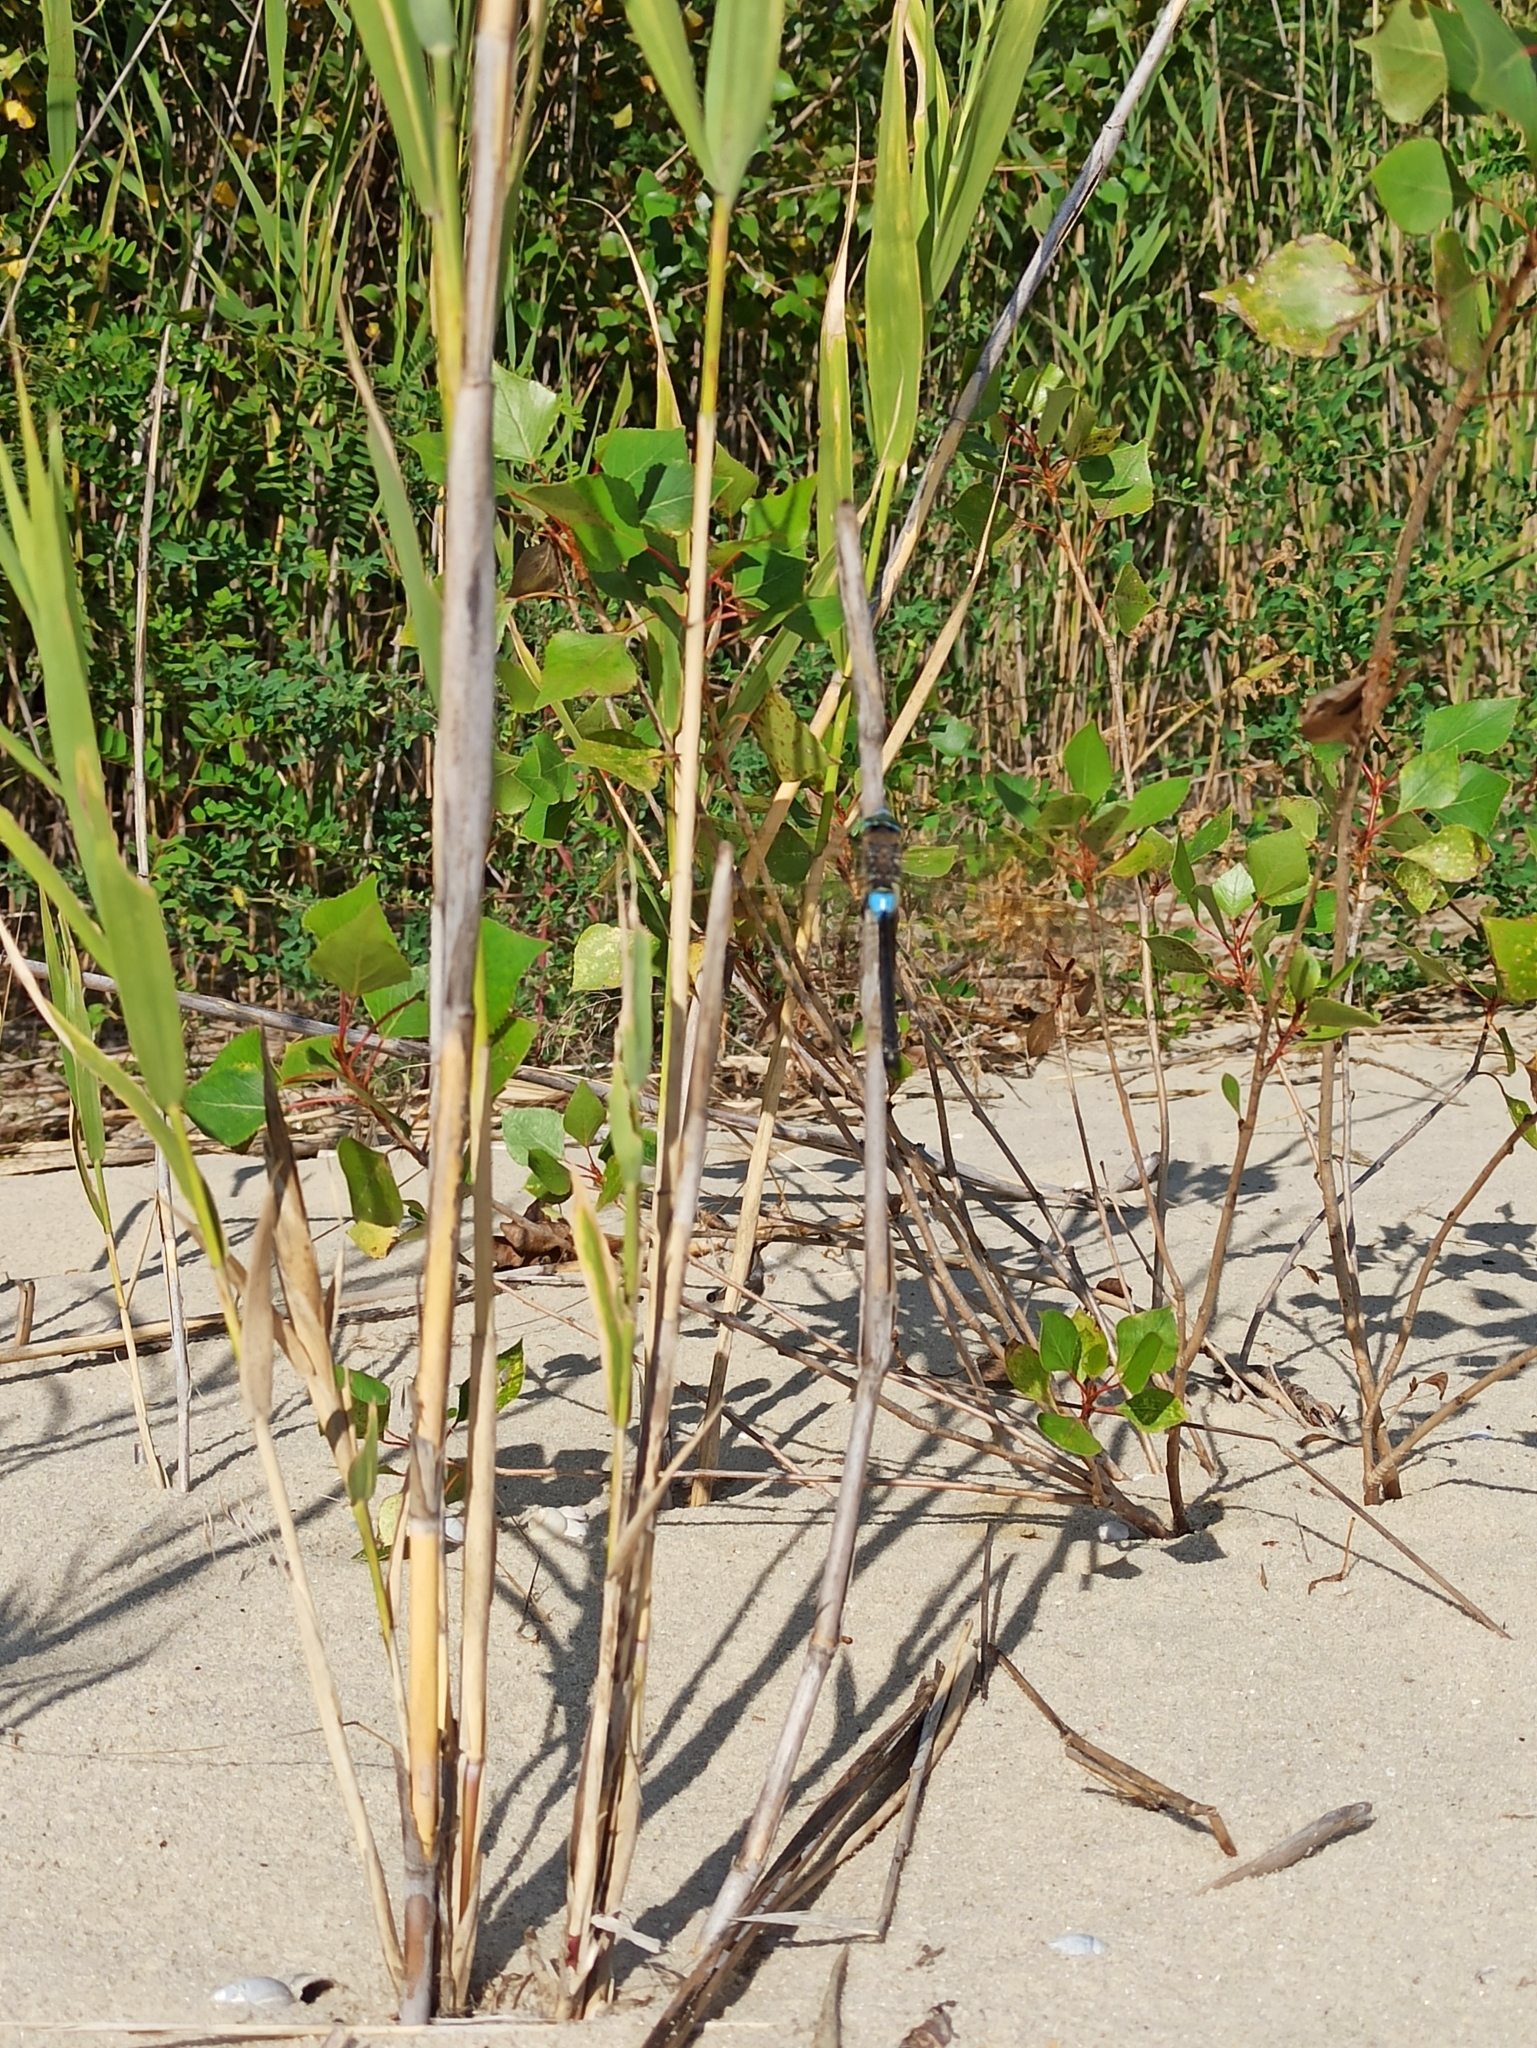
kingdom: Animalia
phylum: Arthropoda
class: Insecta
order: Odonata
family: Aeshnidae
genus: Anax
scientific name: Anax parthenope
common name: Lesser emperor
